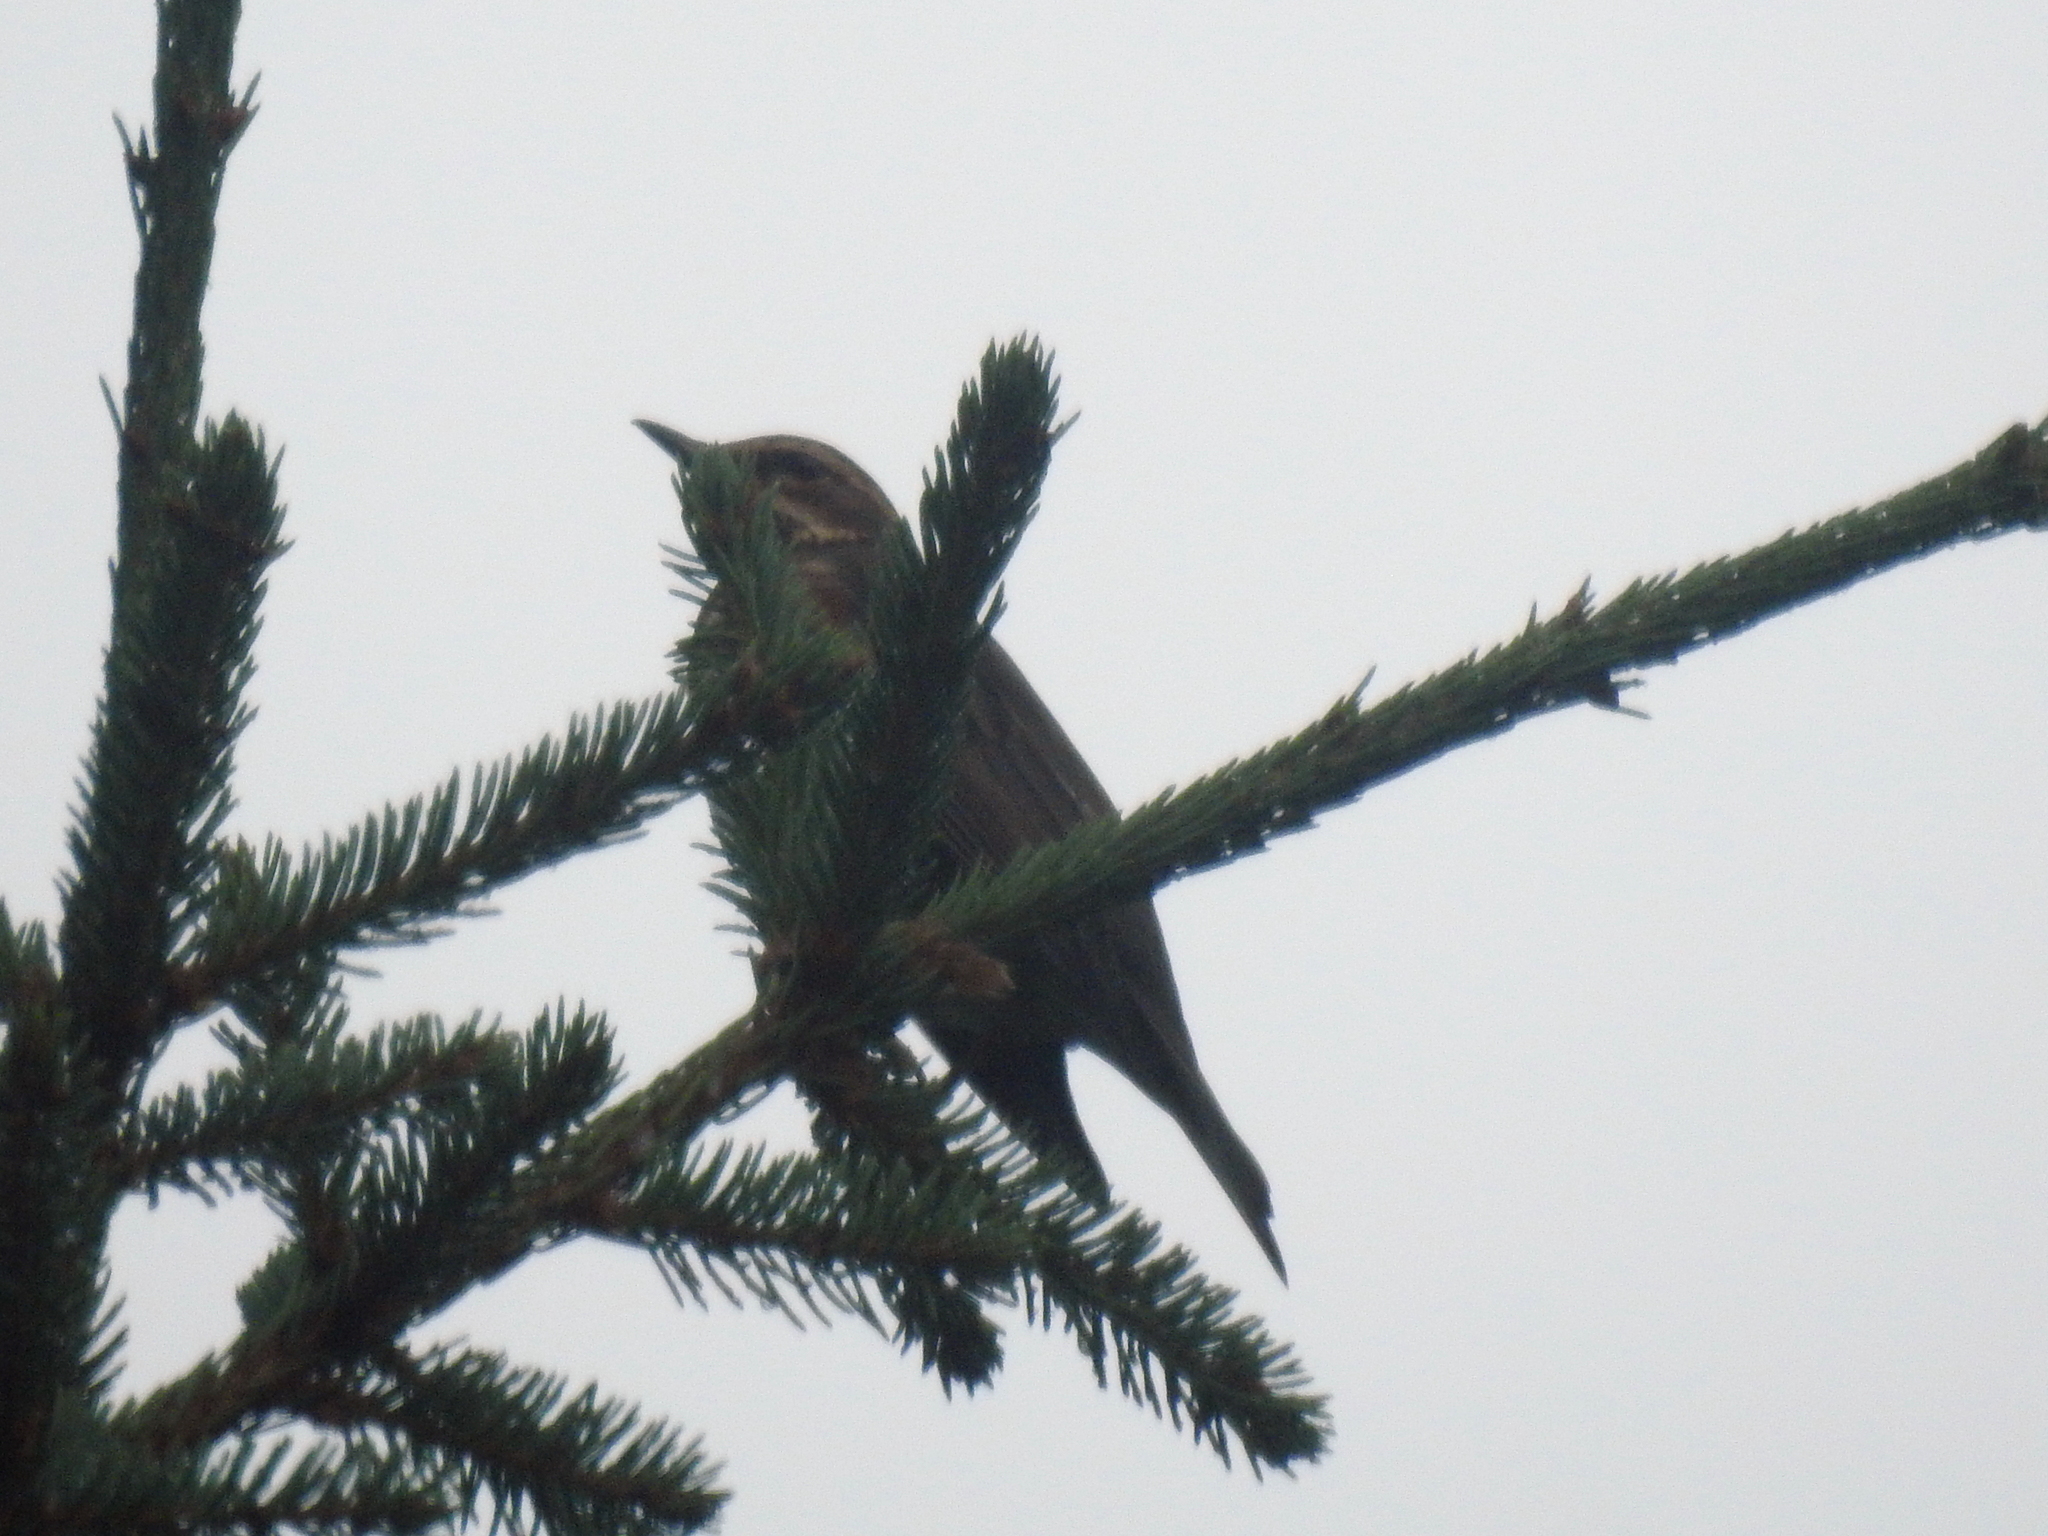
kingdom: Animalia
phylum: Chordata
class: Aves
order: Passeriformes
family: Turdidae
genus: Turdus
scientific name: Turdus iliacus
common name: Redwing
